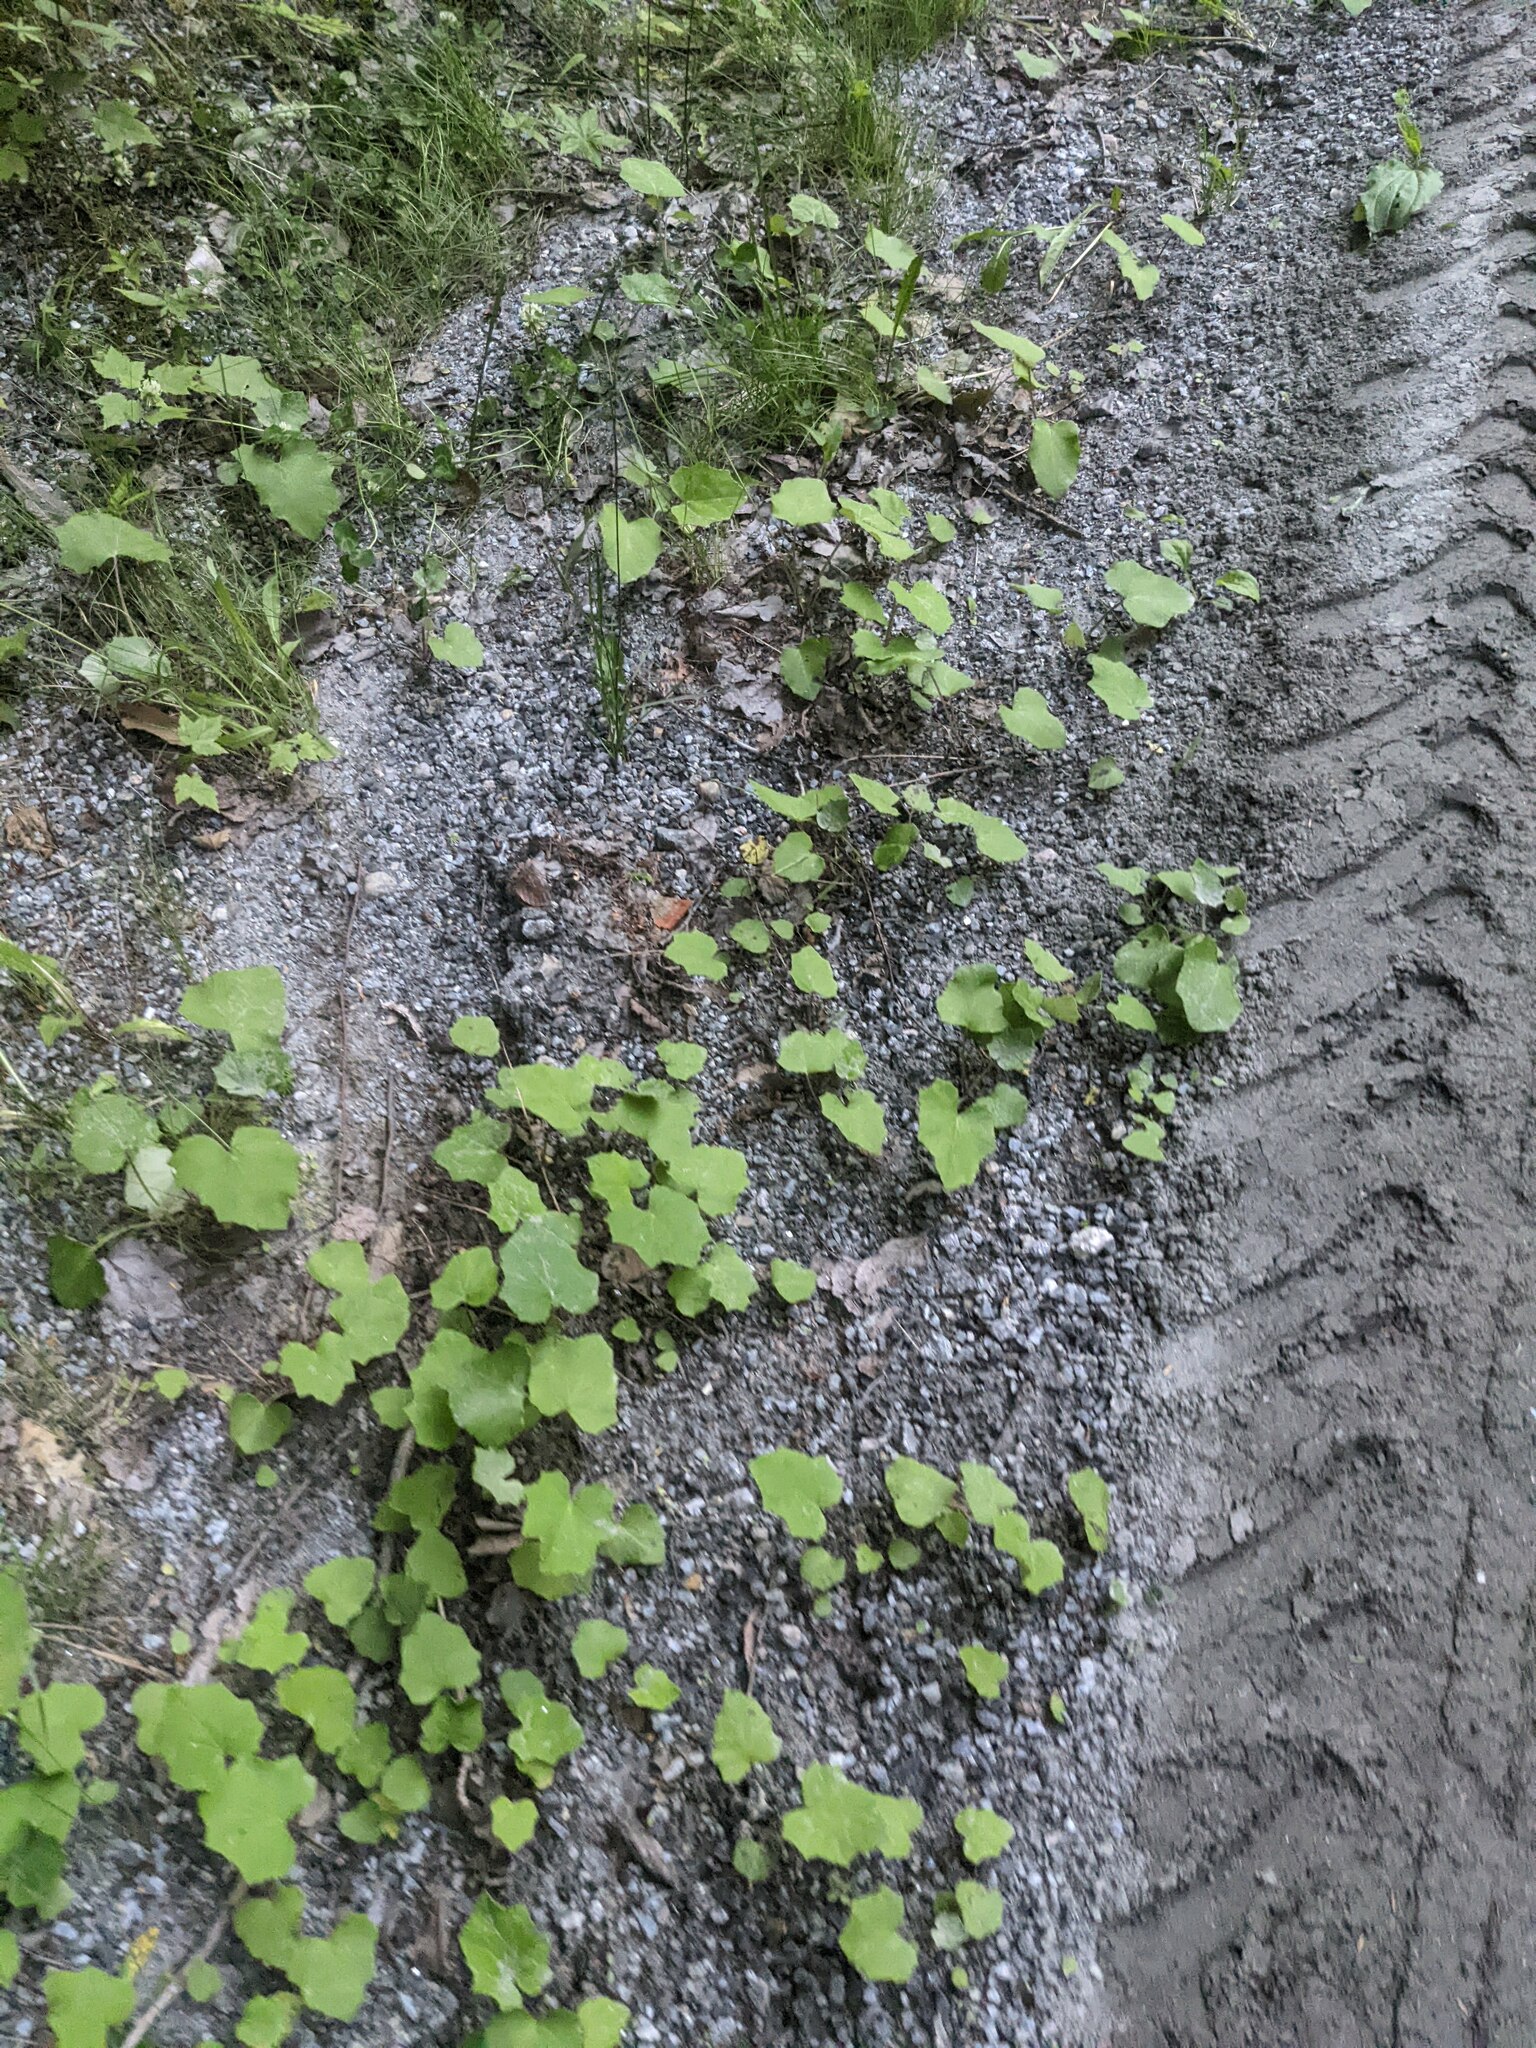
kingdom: Plantae
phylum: Tracheophyta
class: Magnoliopsida
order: Asterales
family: Asteraceae
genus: Tussilago
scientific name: Tussilago farfara
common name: Coltsfoot
